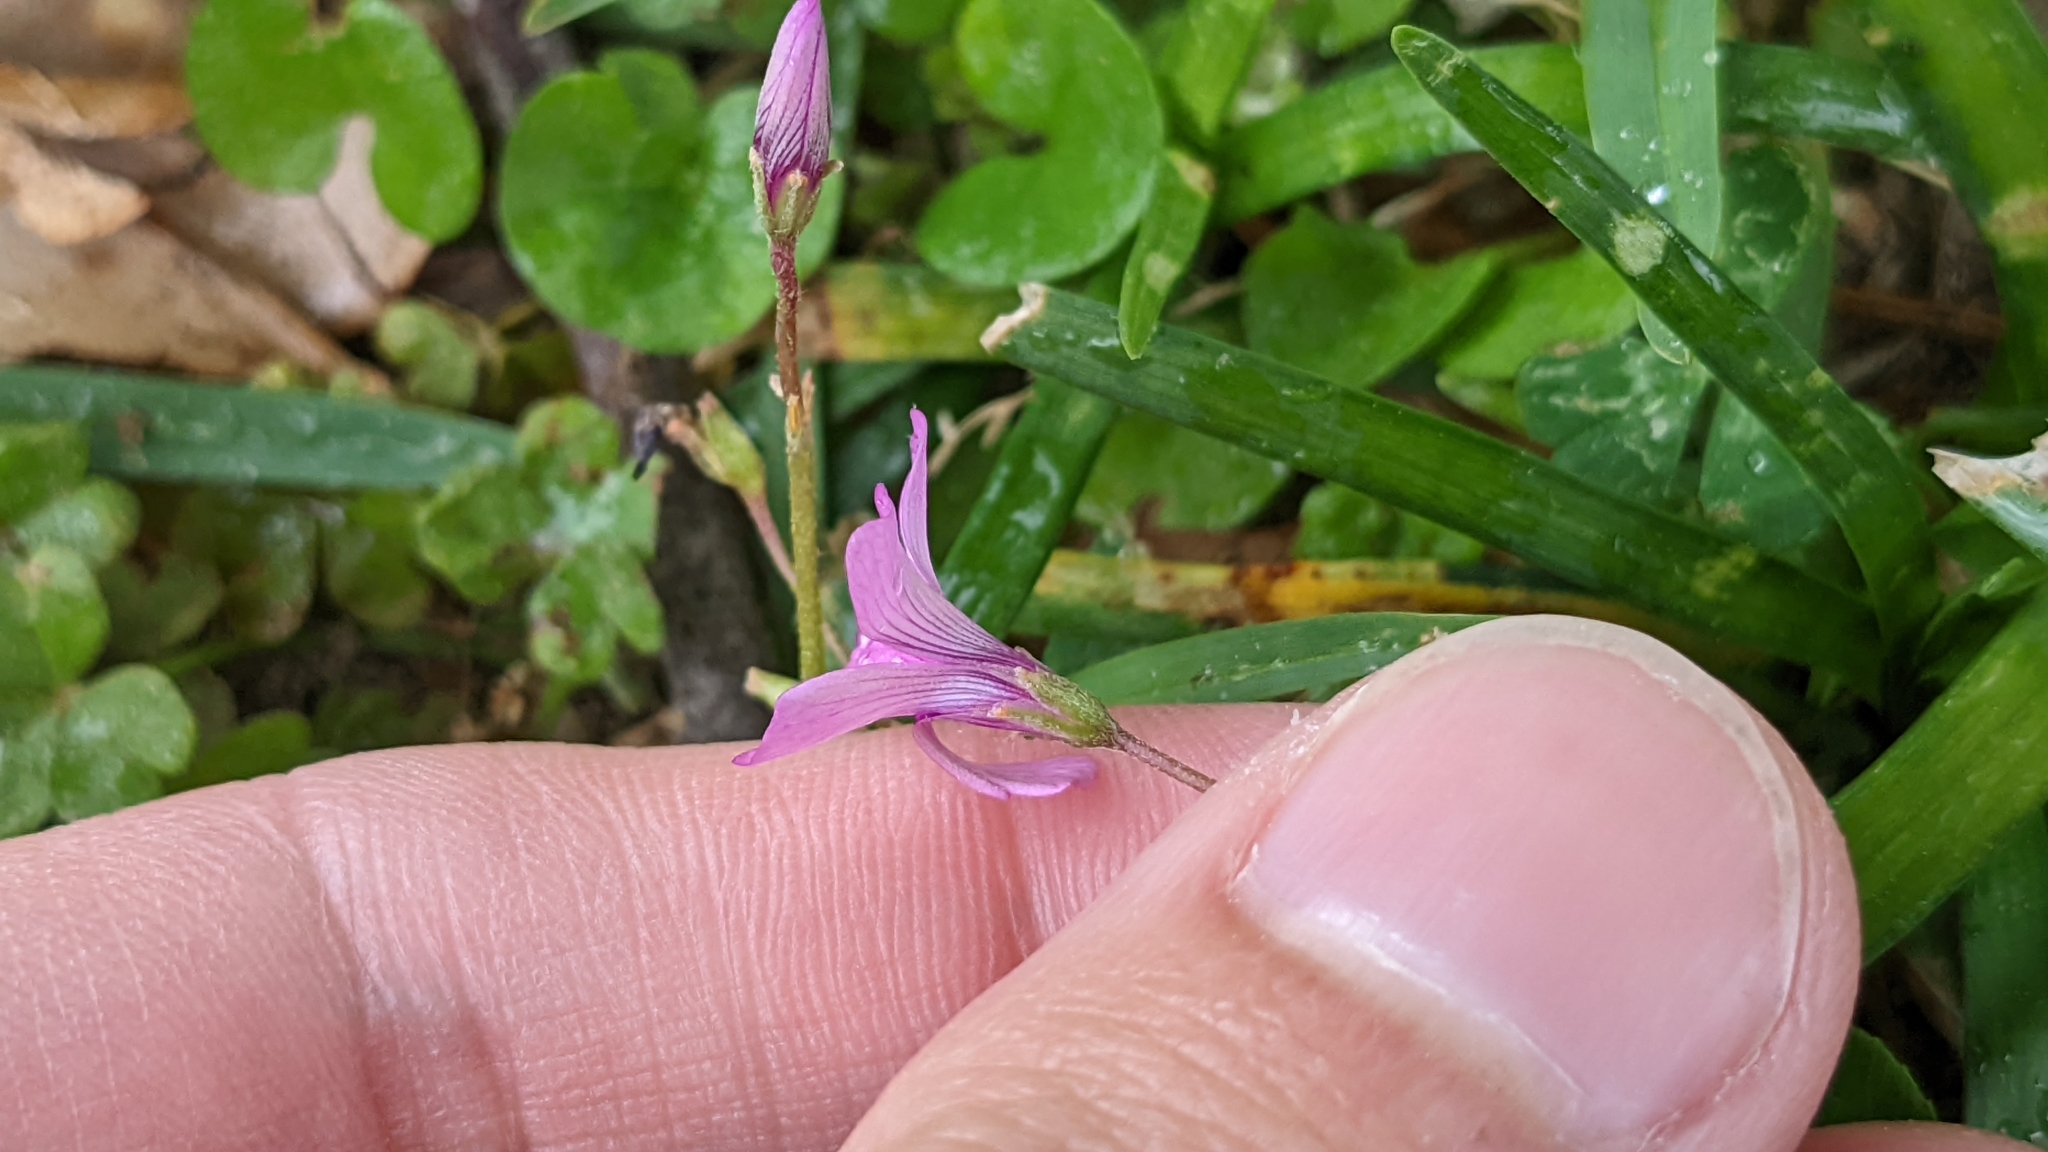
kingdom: Plantae
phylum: Tracheophyta
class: Magnoliopsida
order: Oxalidales
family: Oxalidaceae
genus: Oxalis
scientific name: Oxalis articulata
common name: Pink-sorrel
